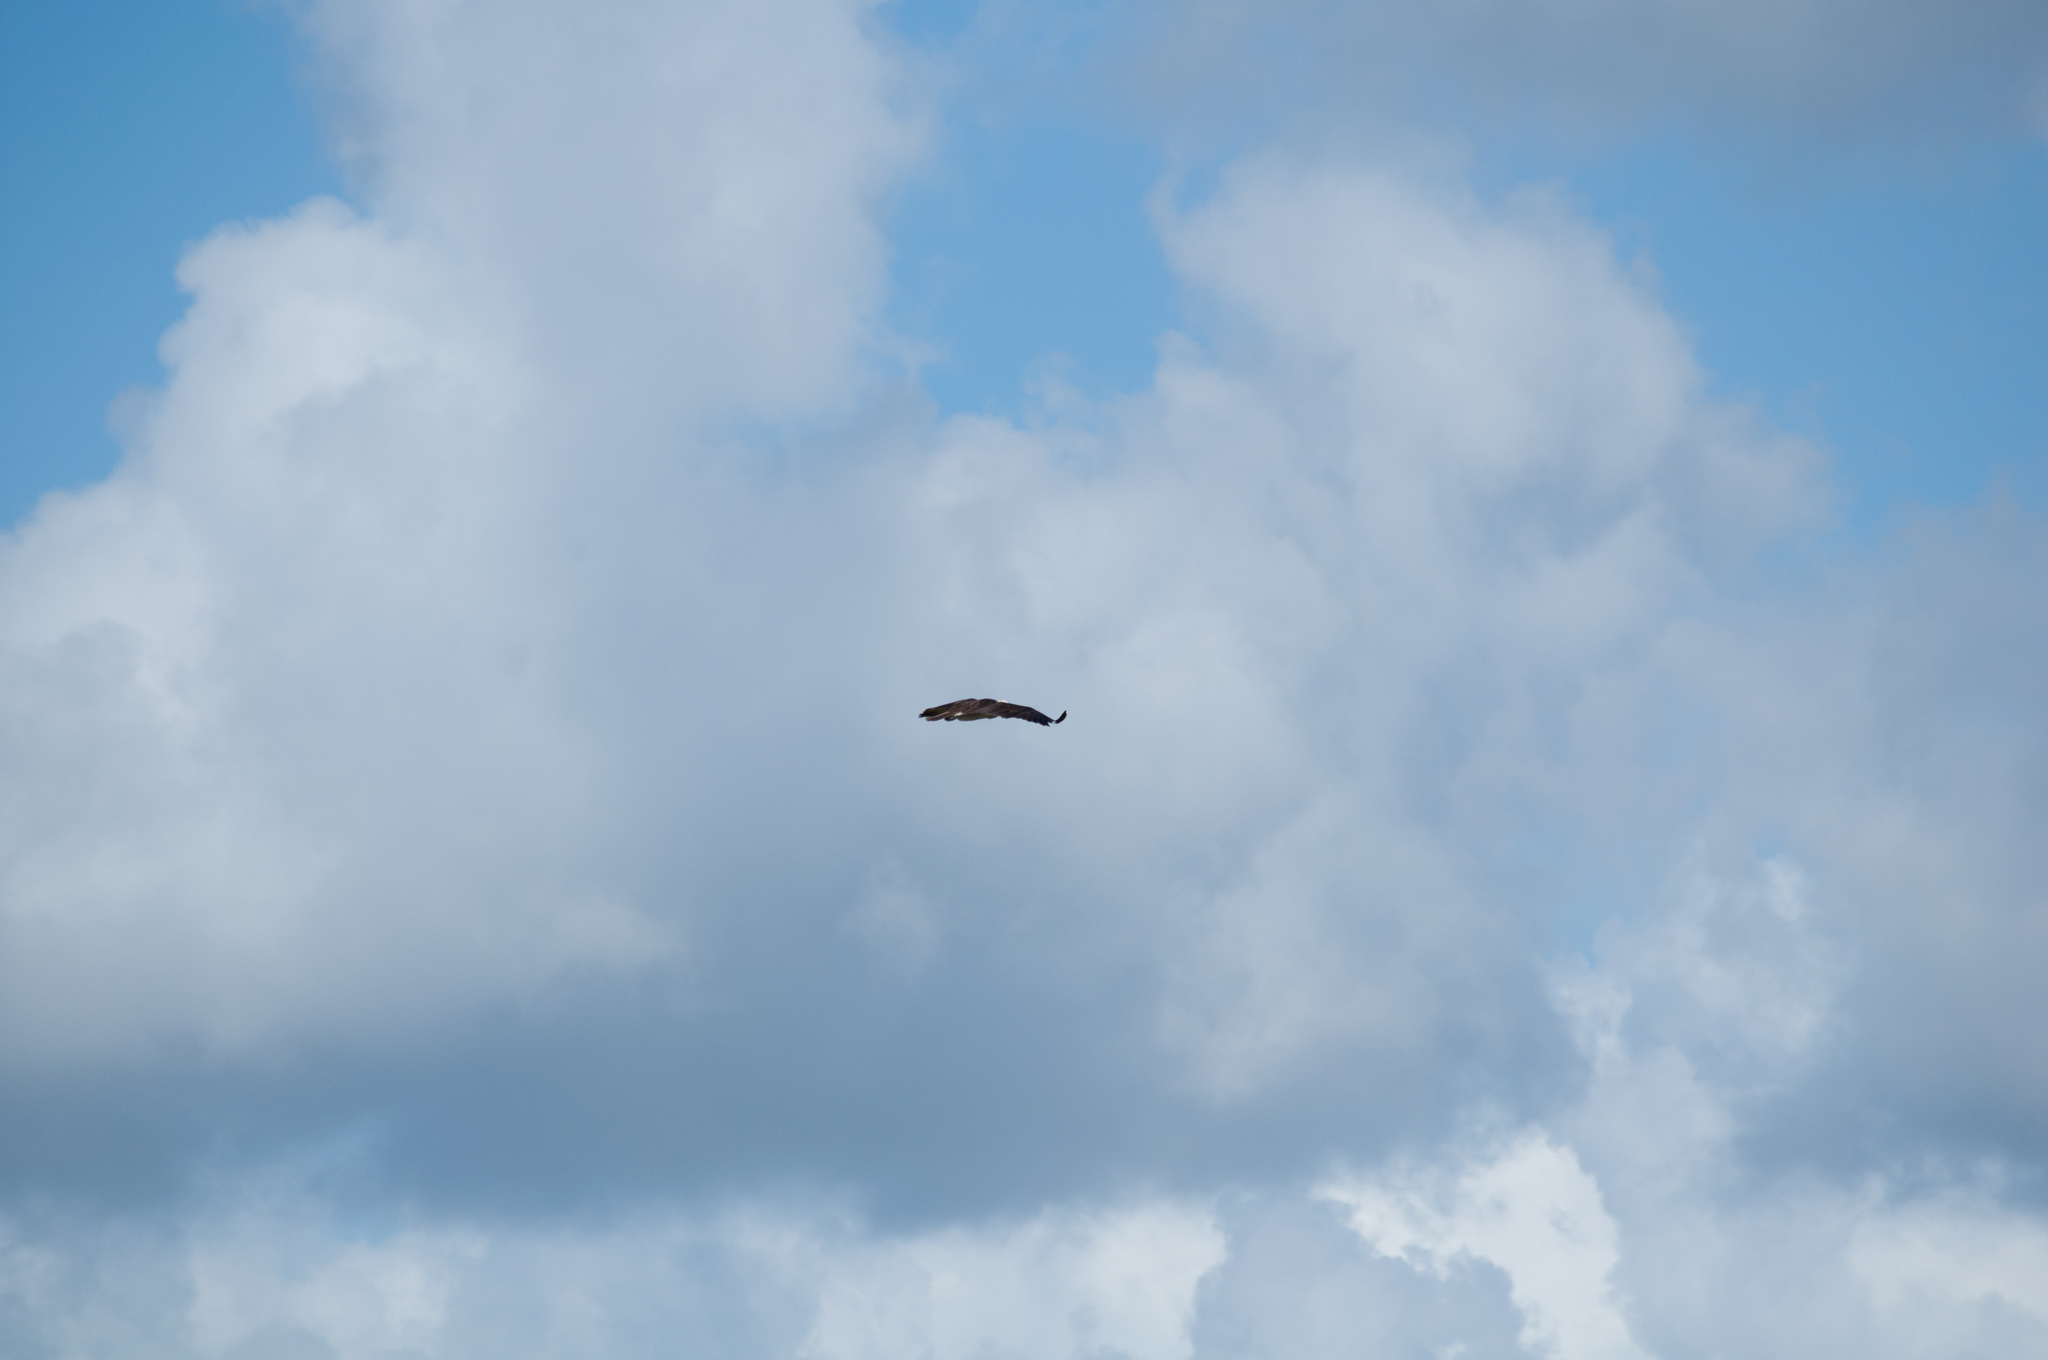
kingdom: Animalia
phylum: Chordata
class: Aves
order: Accipitriformes
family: Pandionidae
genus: Pandion
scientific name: Pandion haliaetus
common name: Osprey
